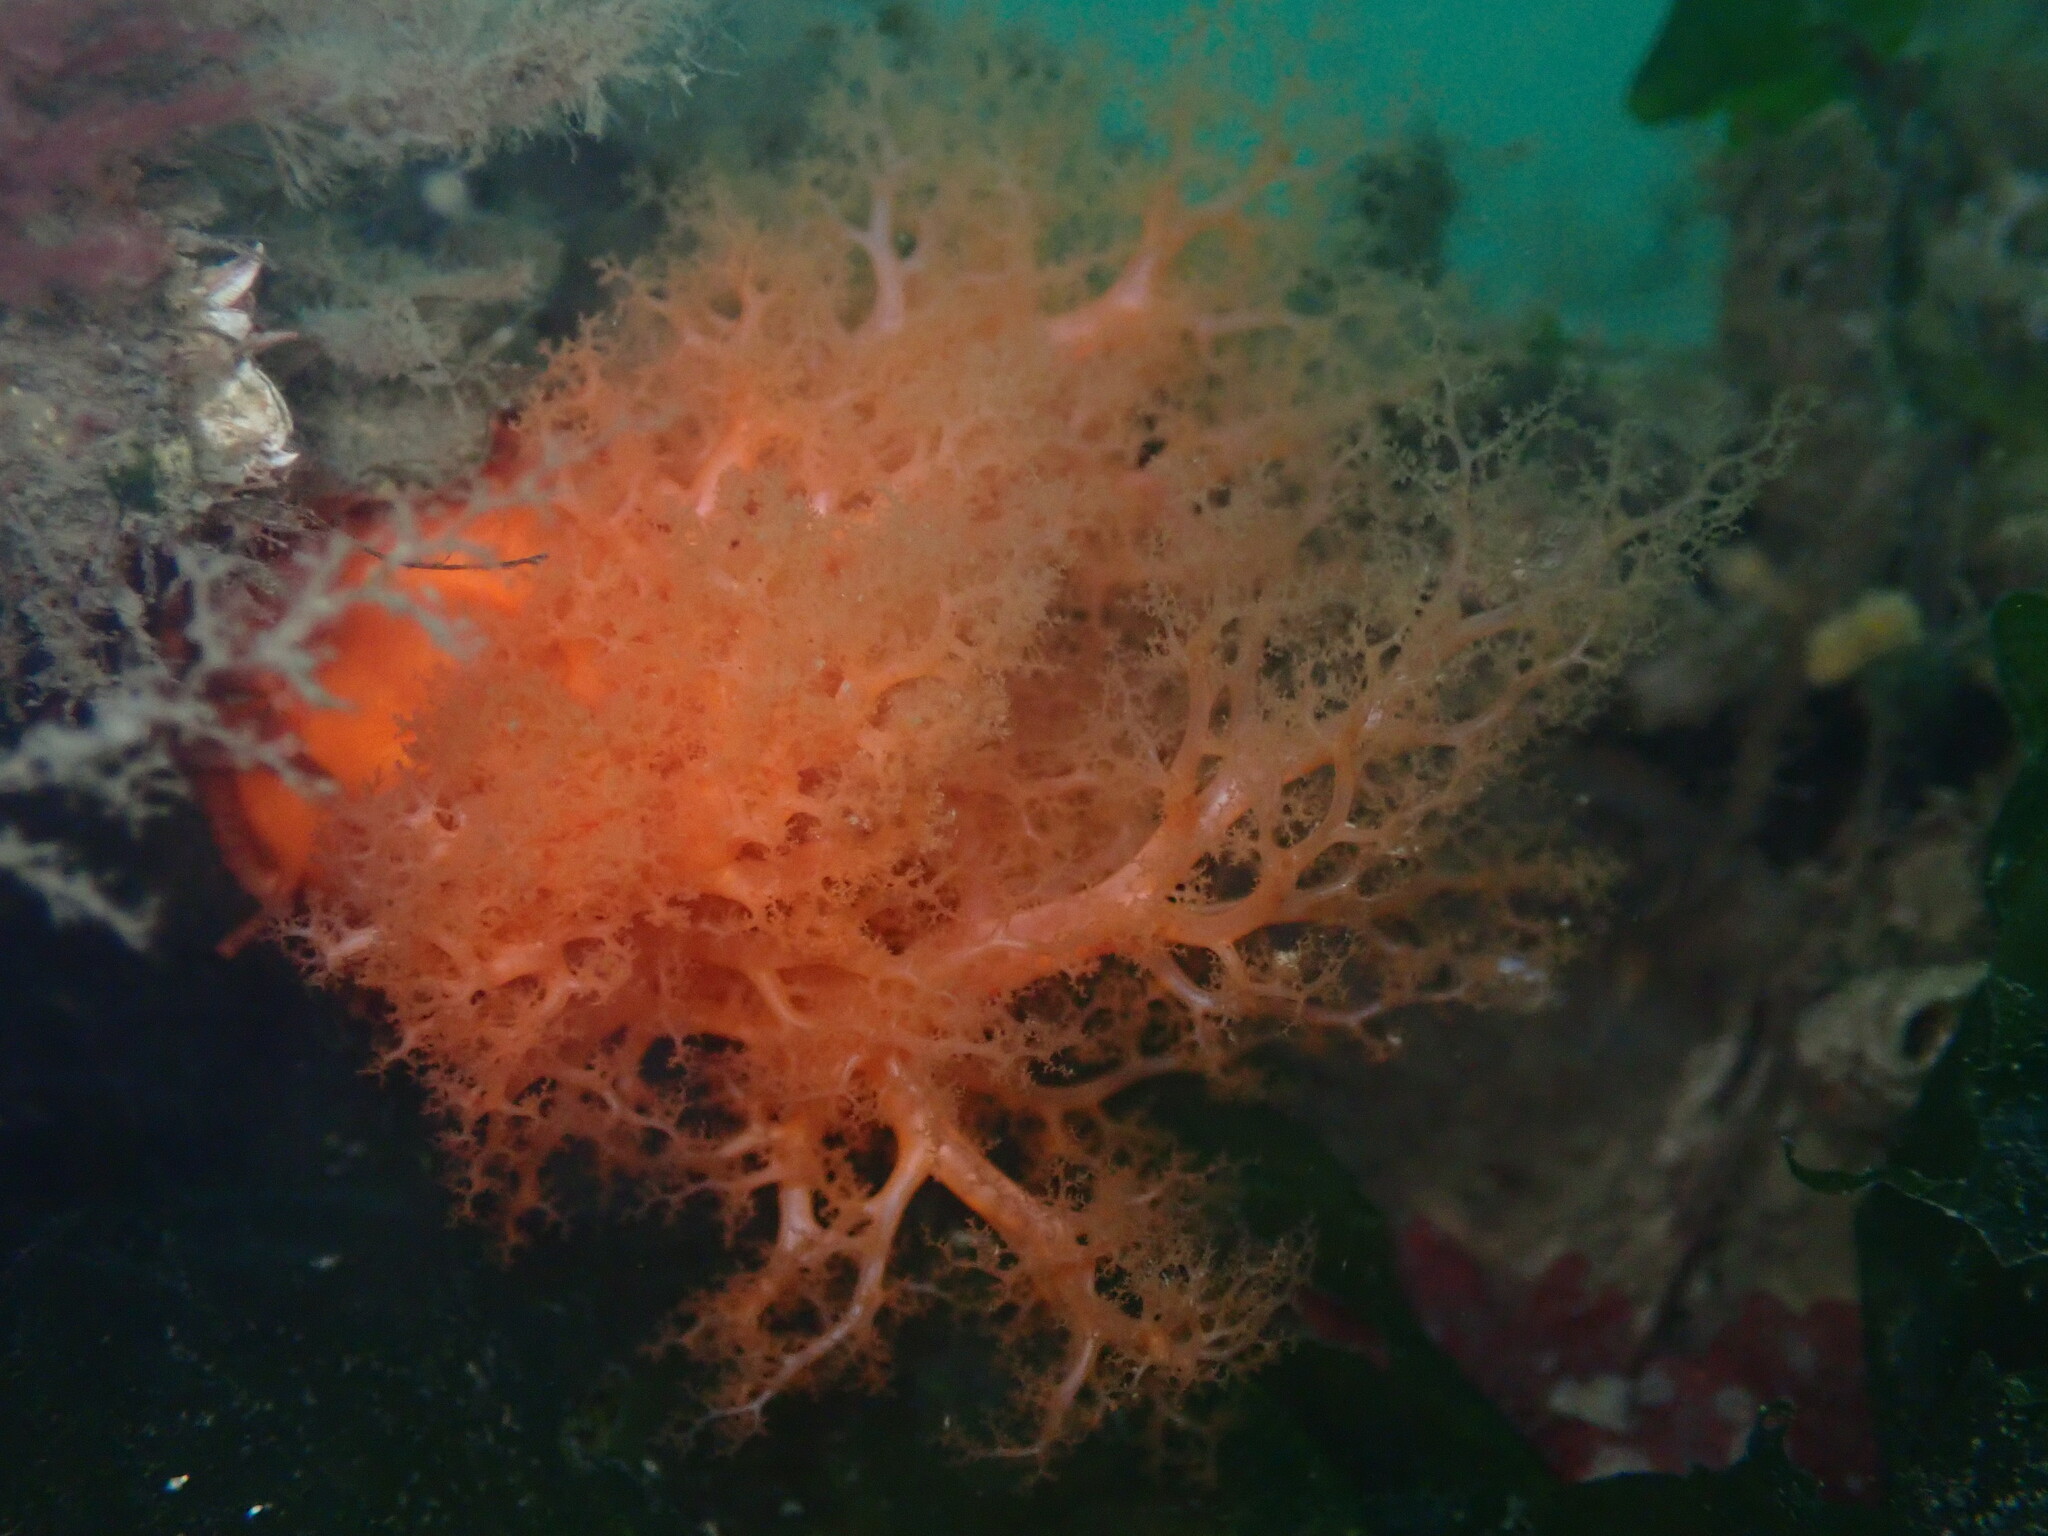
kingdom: Animalia
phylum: Echinodermata
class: Holothuroidea
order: Dendrochirotida
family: Cucumariidae
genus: Cucumaria
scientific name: Cucumaria miniata
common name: Orange sea cucumber
